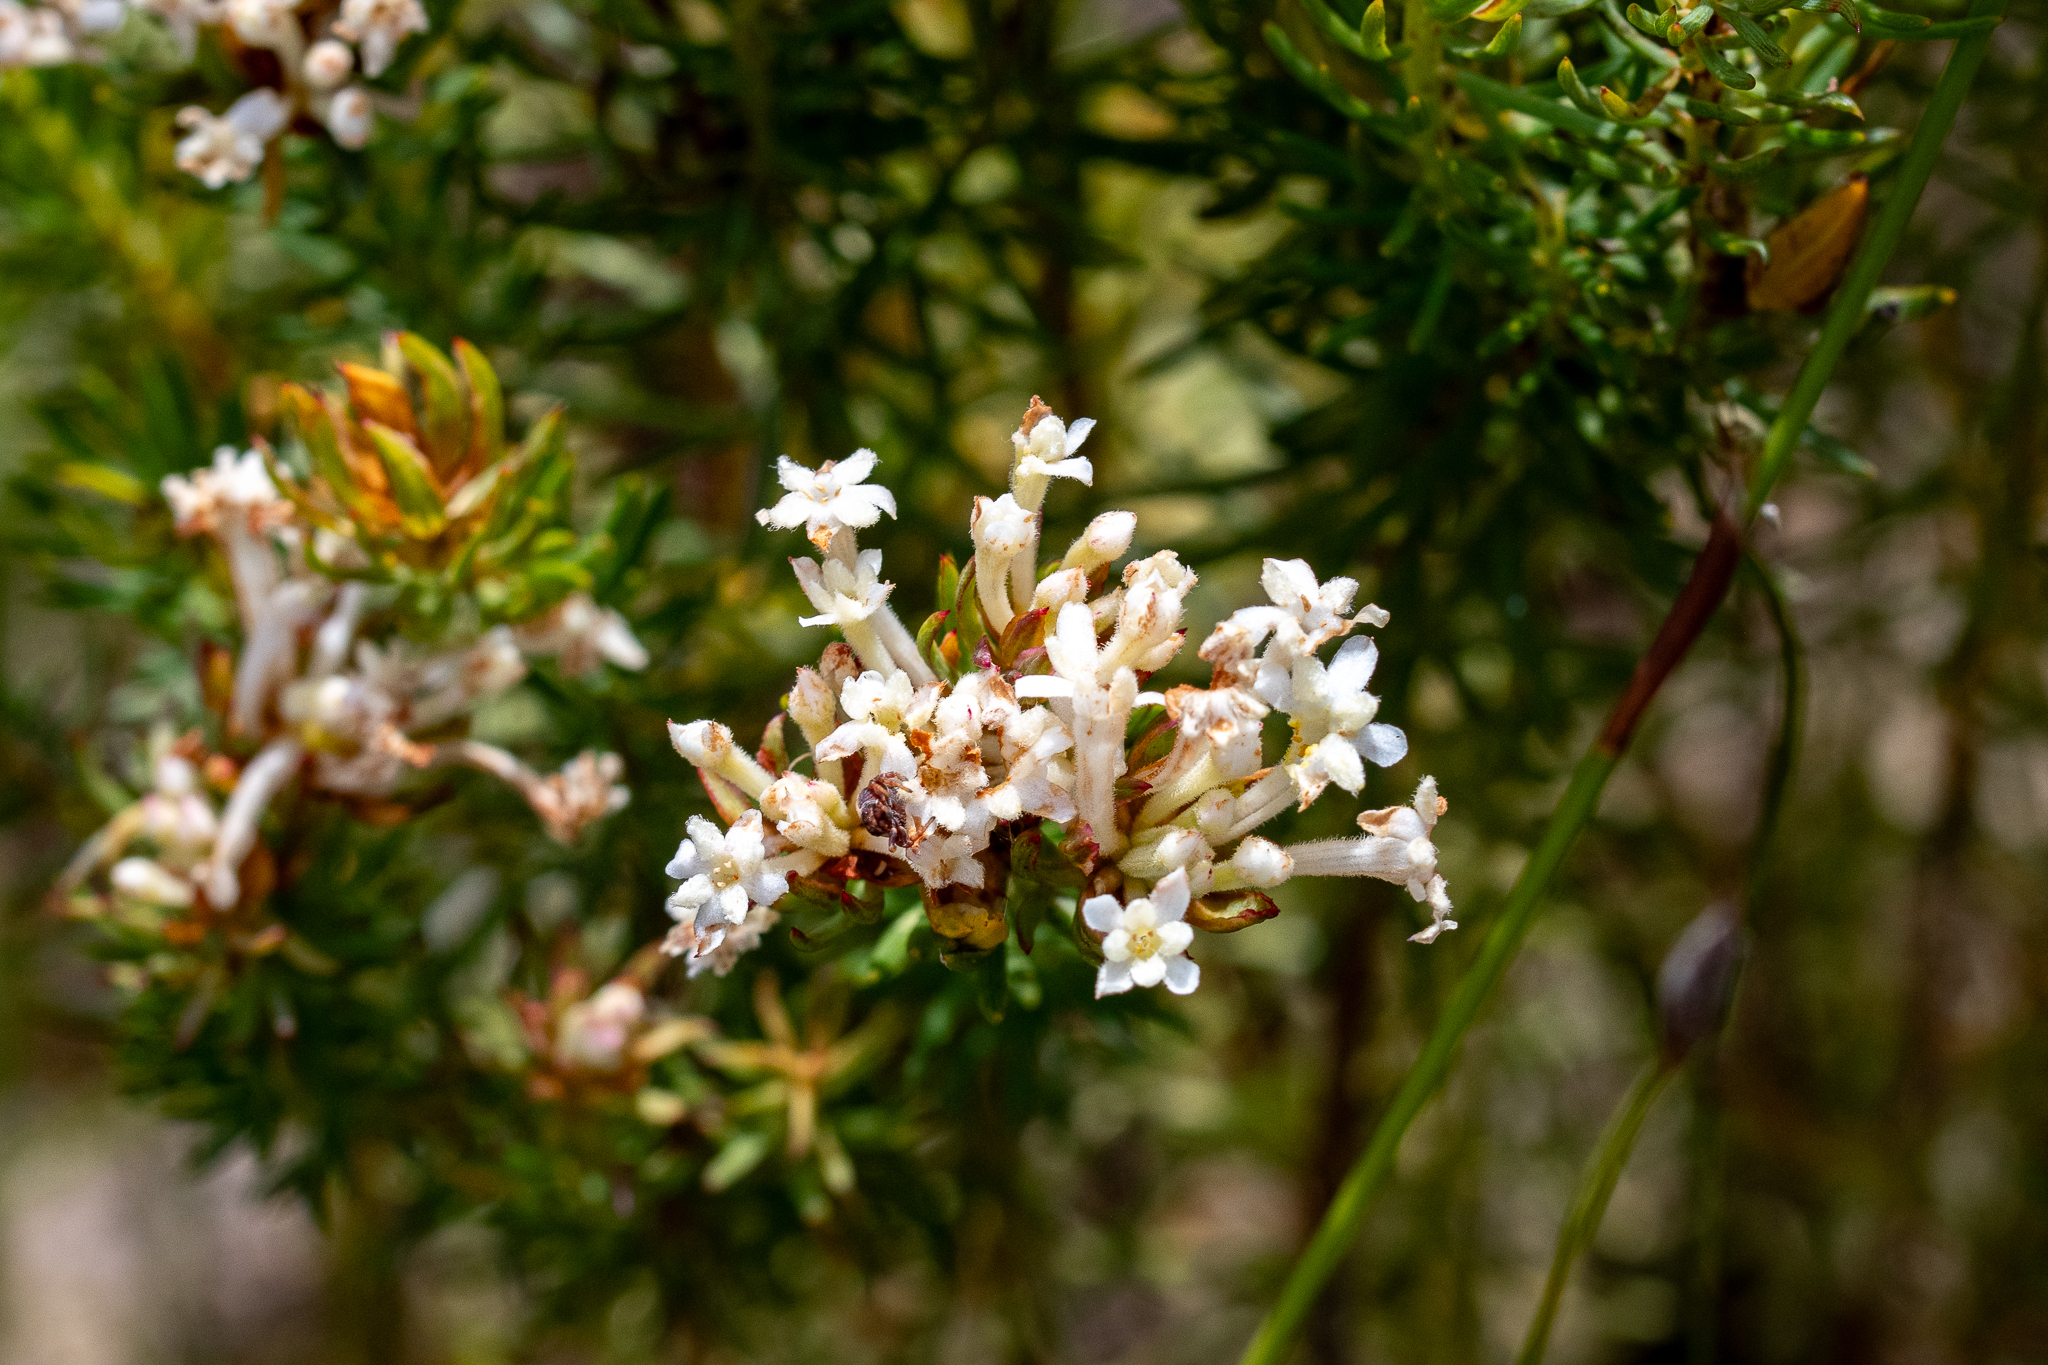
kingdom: Plantae
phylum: Tracheophyta
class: Magnoliopsida
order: Malvales
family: Thymelaeaceae
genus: Gnidia
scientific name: Gnidia pinifolia
